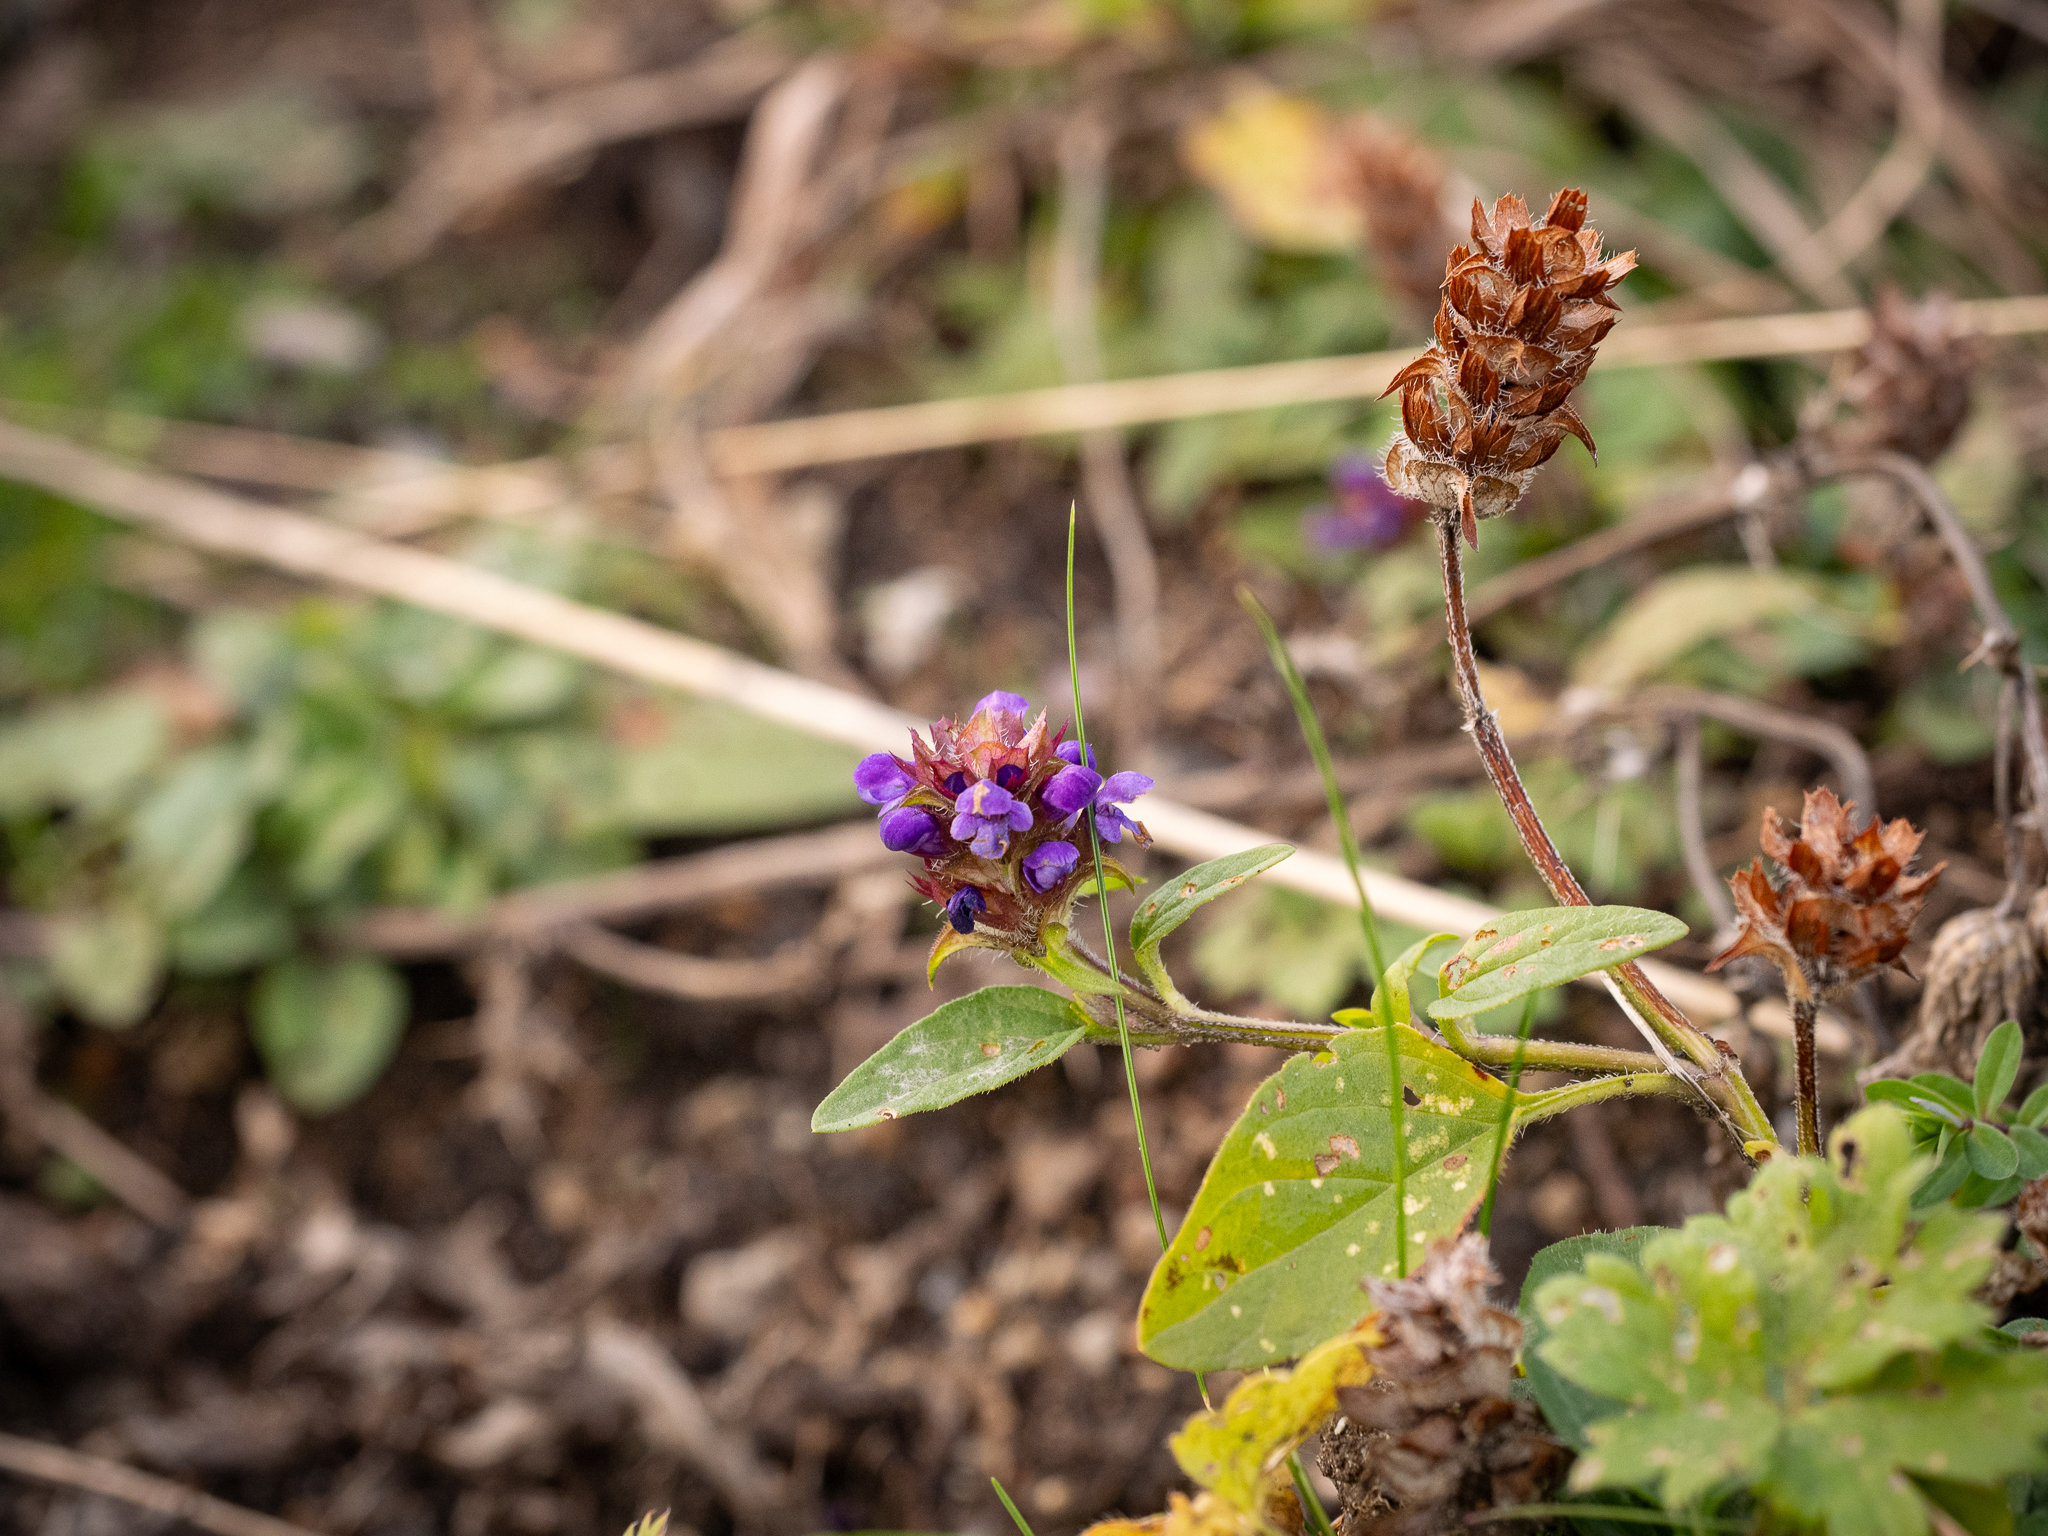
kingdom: Plantae
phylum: Tracheophyta
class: Magnoliopsida
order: Lamiales
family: Lamiaceae
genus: Prunella
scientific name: Prunella vulgaris
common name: Heal-all
